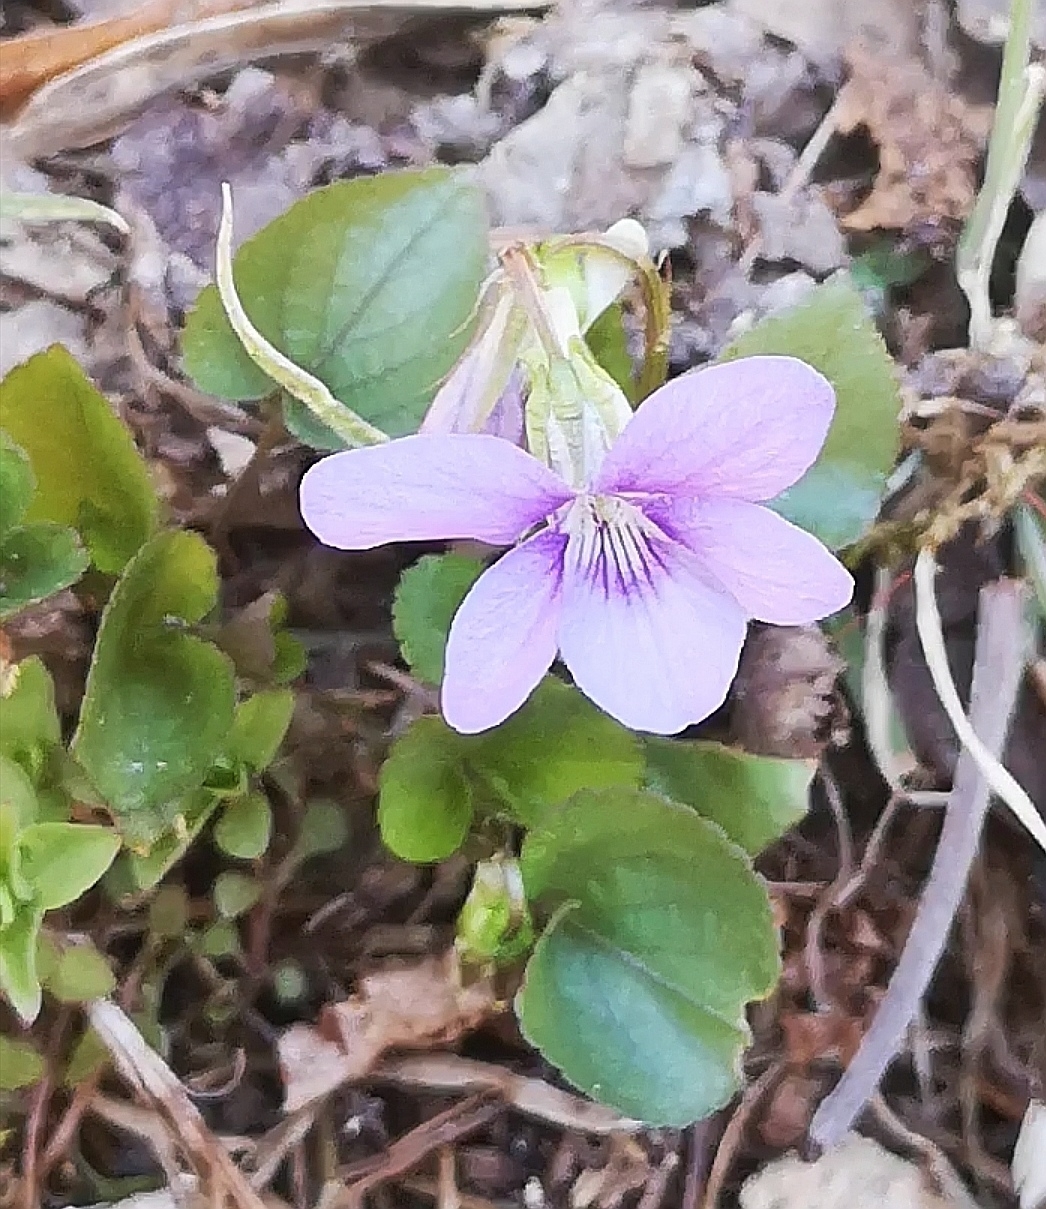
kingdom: Plantae
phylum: Tracheophyta
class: Magnoliopsida
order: Malpighiales
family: Violaceae
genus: Viola
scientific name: Viola riviniana
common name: Common dog-violet
